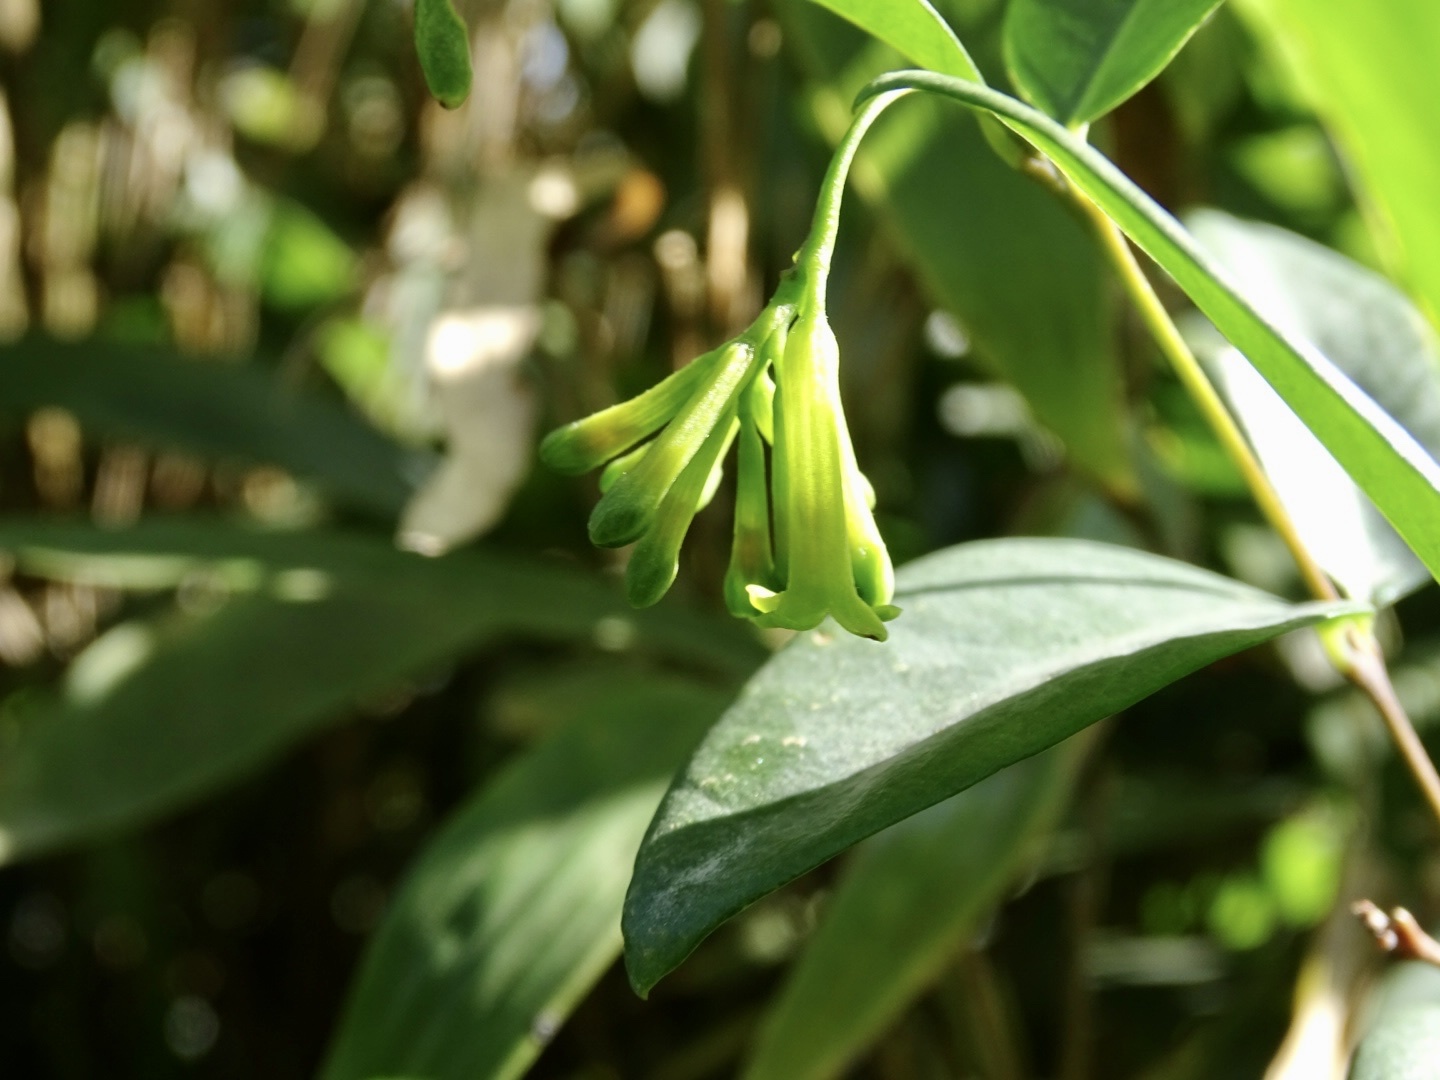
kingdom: Plantae
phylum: Tracheophyta
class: Magnoliopsida
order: Malvales
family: Thymelaeaceae
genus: Wikstroemia
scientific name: Wikstroemia nutans
